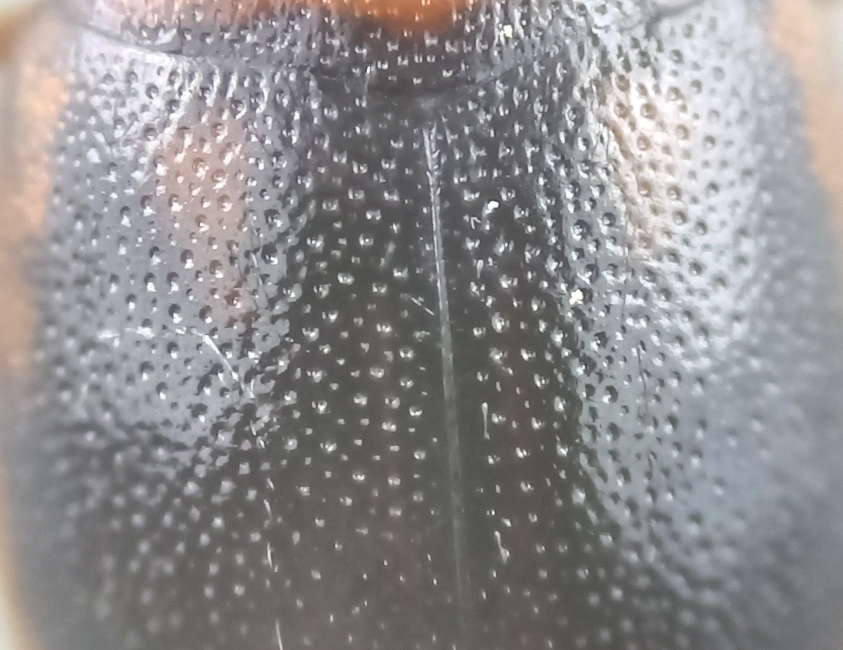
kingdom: Animalia
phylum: Arthropoda
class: Insecta
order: Coleoptera
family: Dytiscidae
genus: Hygrotus
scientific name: Hygrotus quinquelineatus
